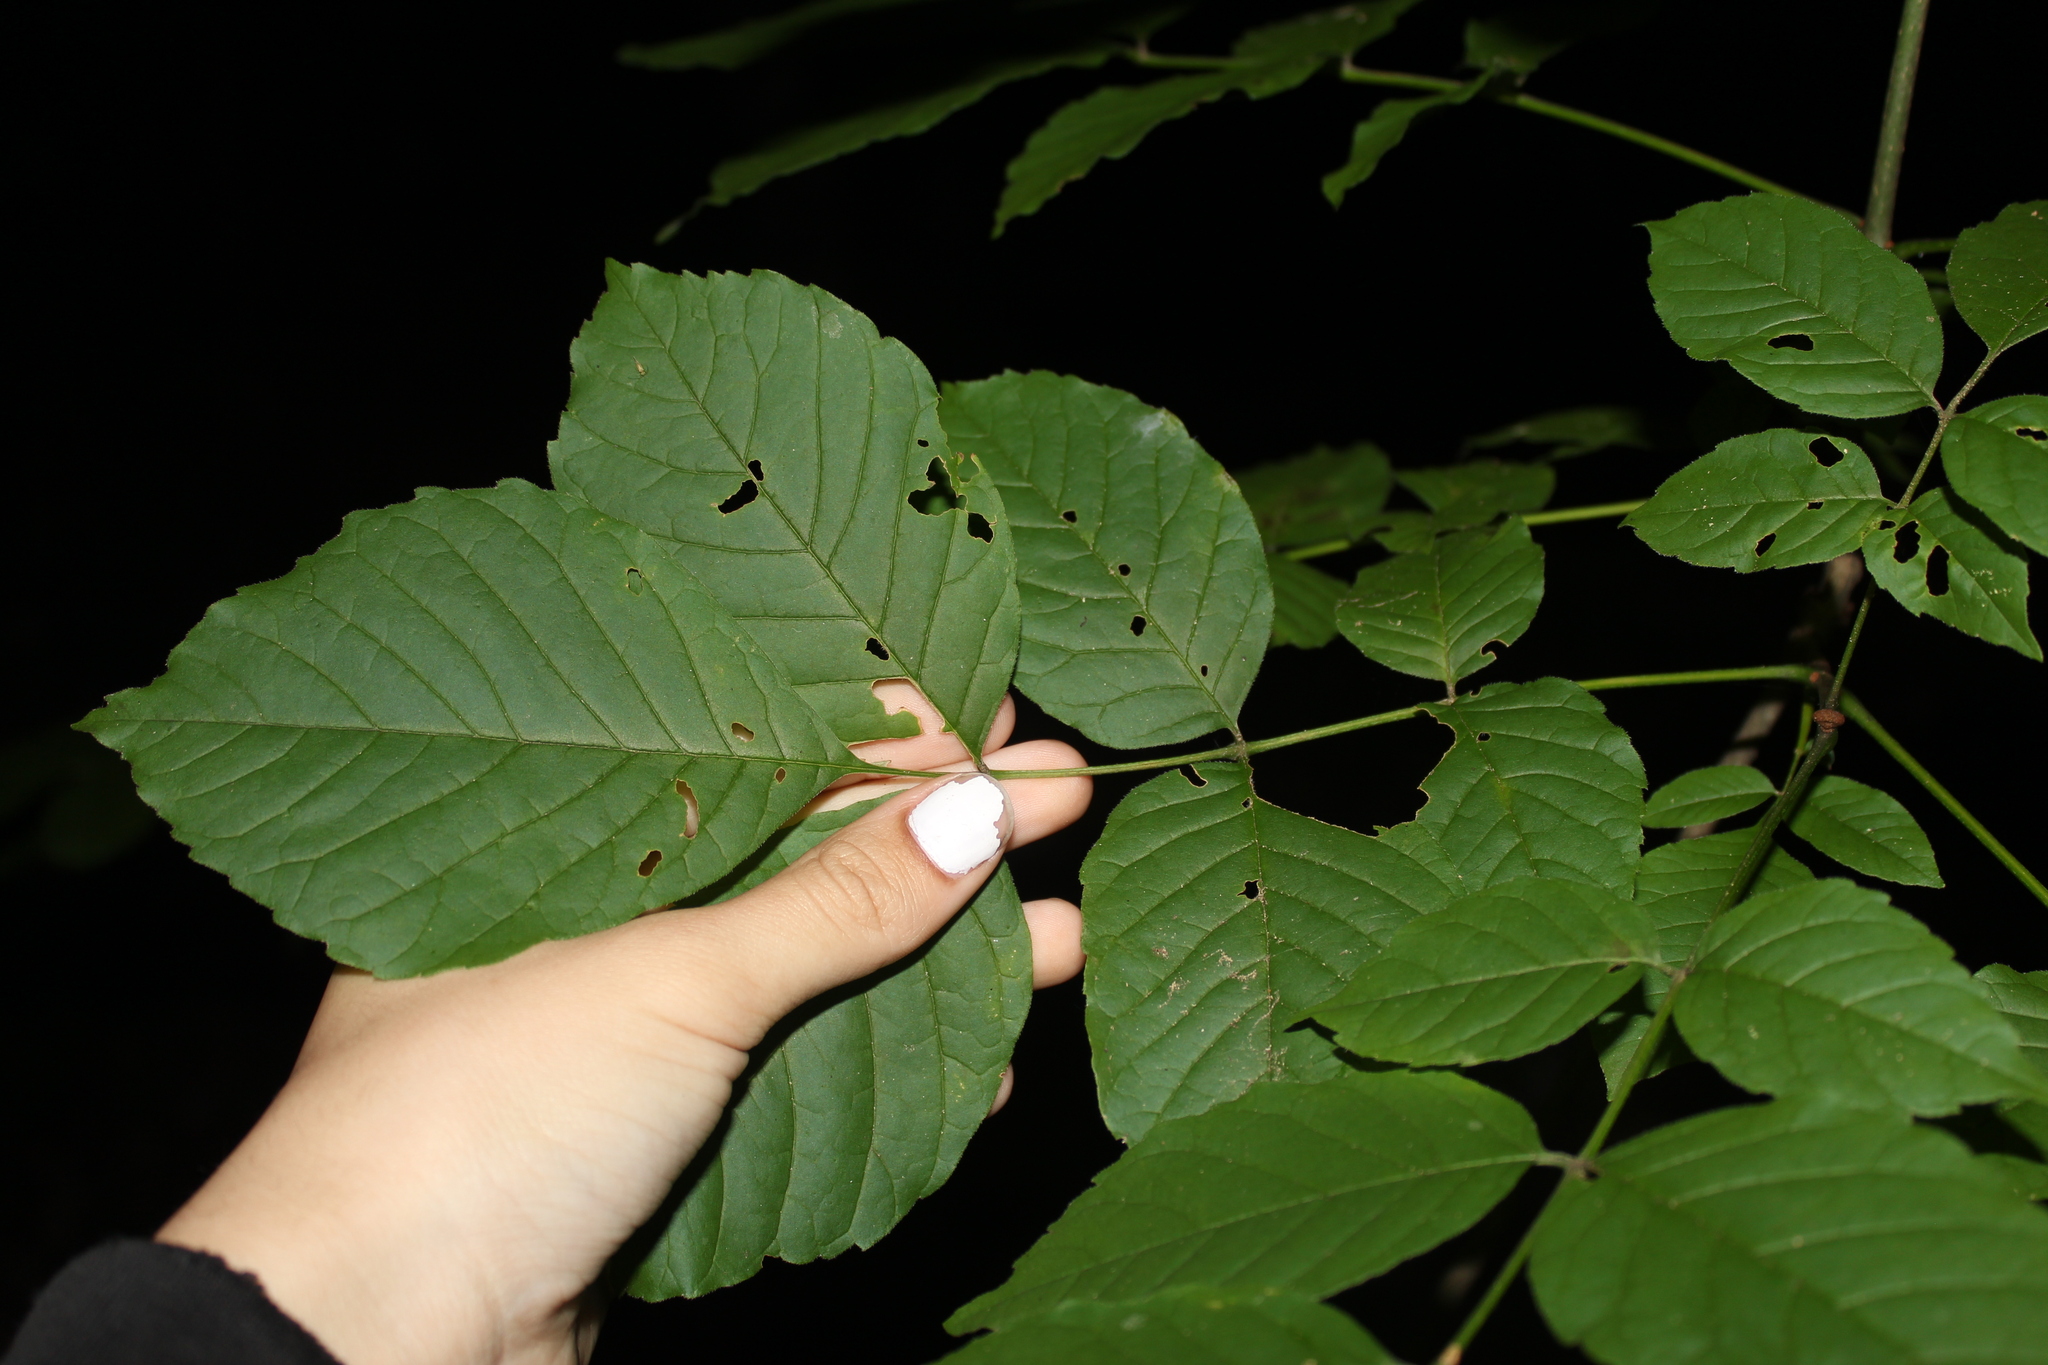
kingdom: Plantae
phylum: Tracheophyta
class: Magnoliopsida
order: Lamiales
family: Oleaceae
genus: Fraxinus
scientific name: Fraxinus americana
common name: White ash
